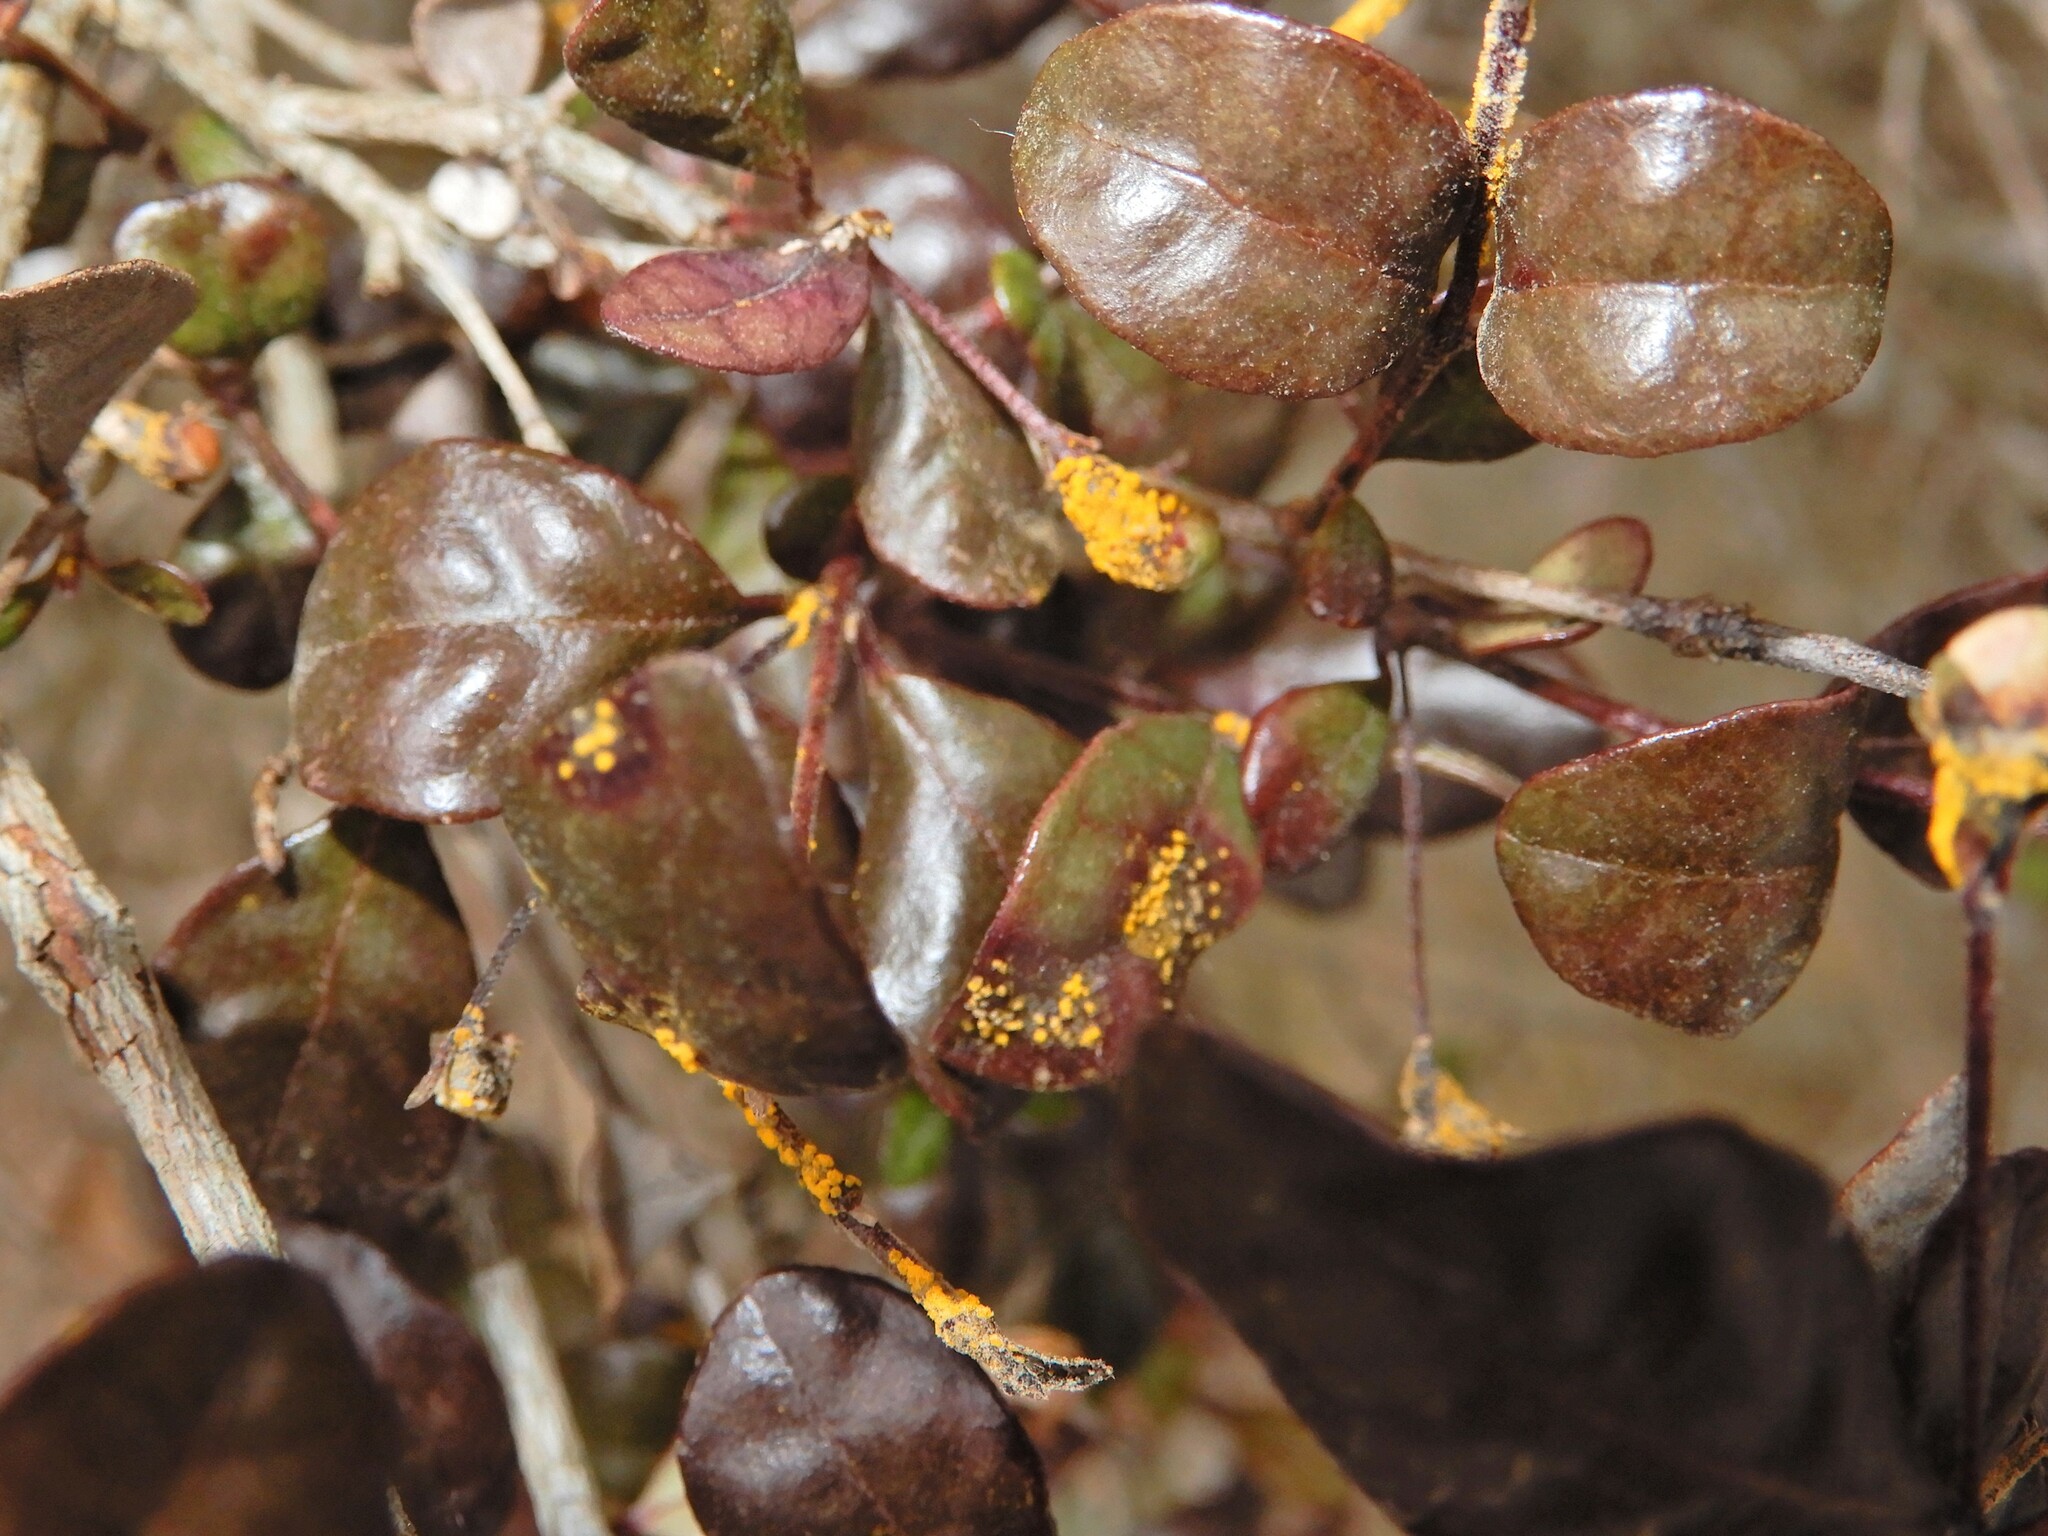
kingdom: Fungi
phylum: Basidiomycota
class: Pucciniomycetes
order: Pucciniales
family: Sphaerophragmiaceae
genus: Austropuccinia
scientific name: Austropuccinia psidii
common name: Myrtle rust
